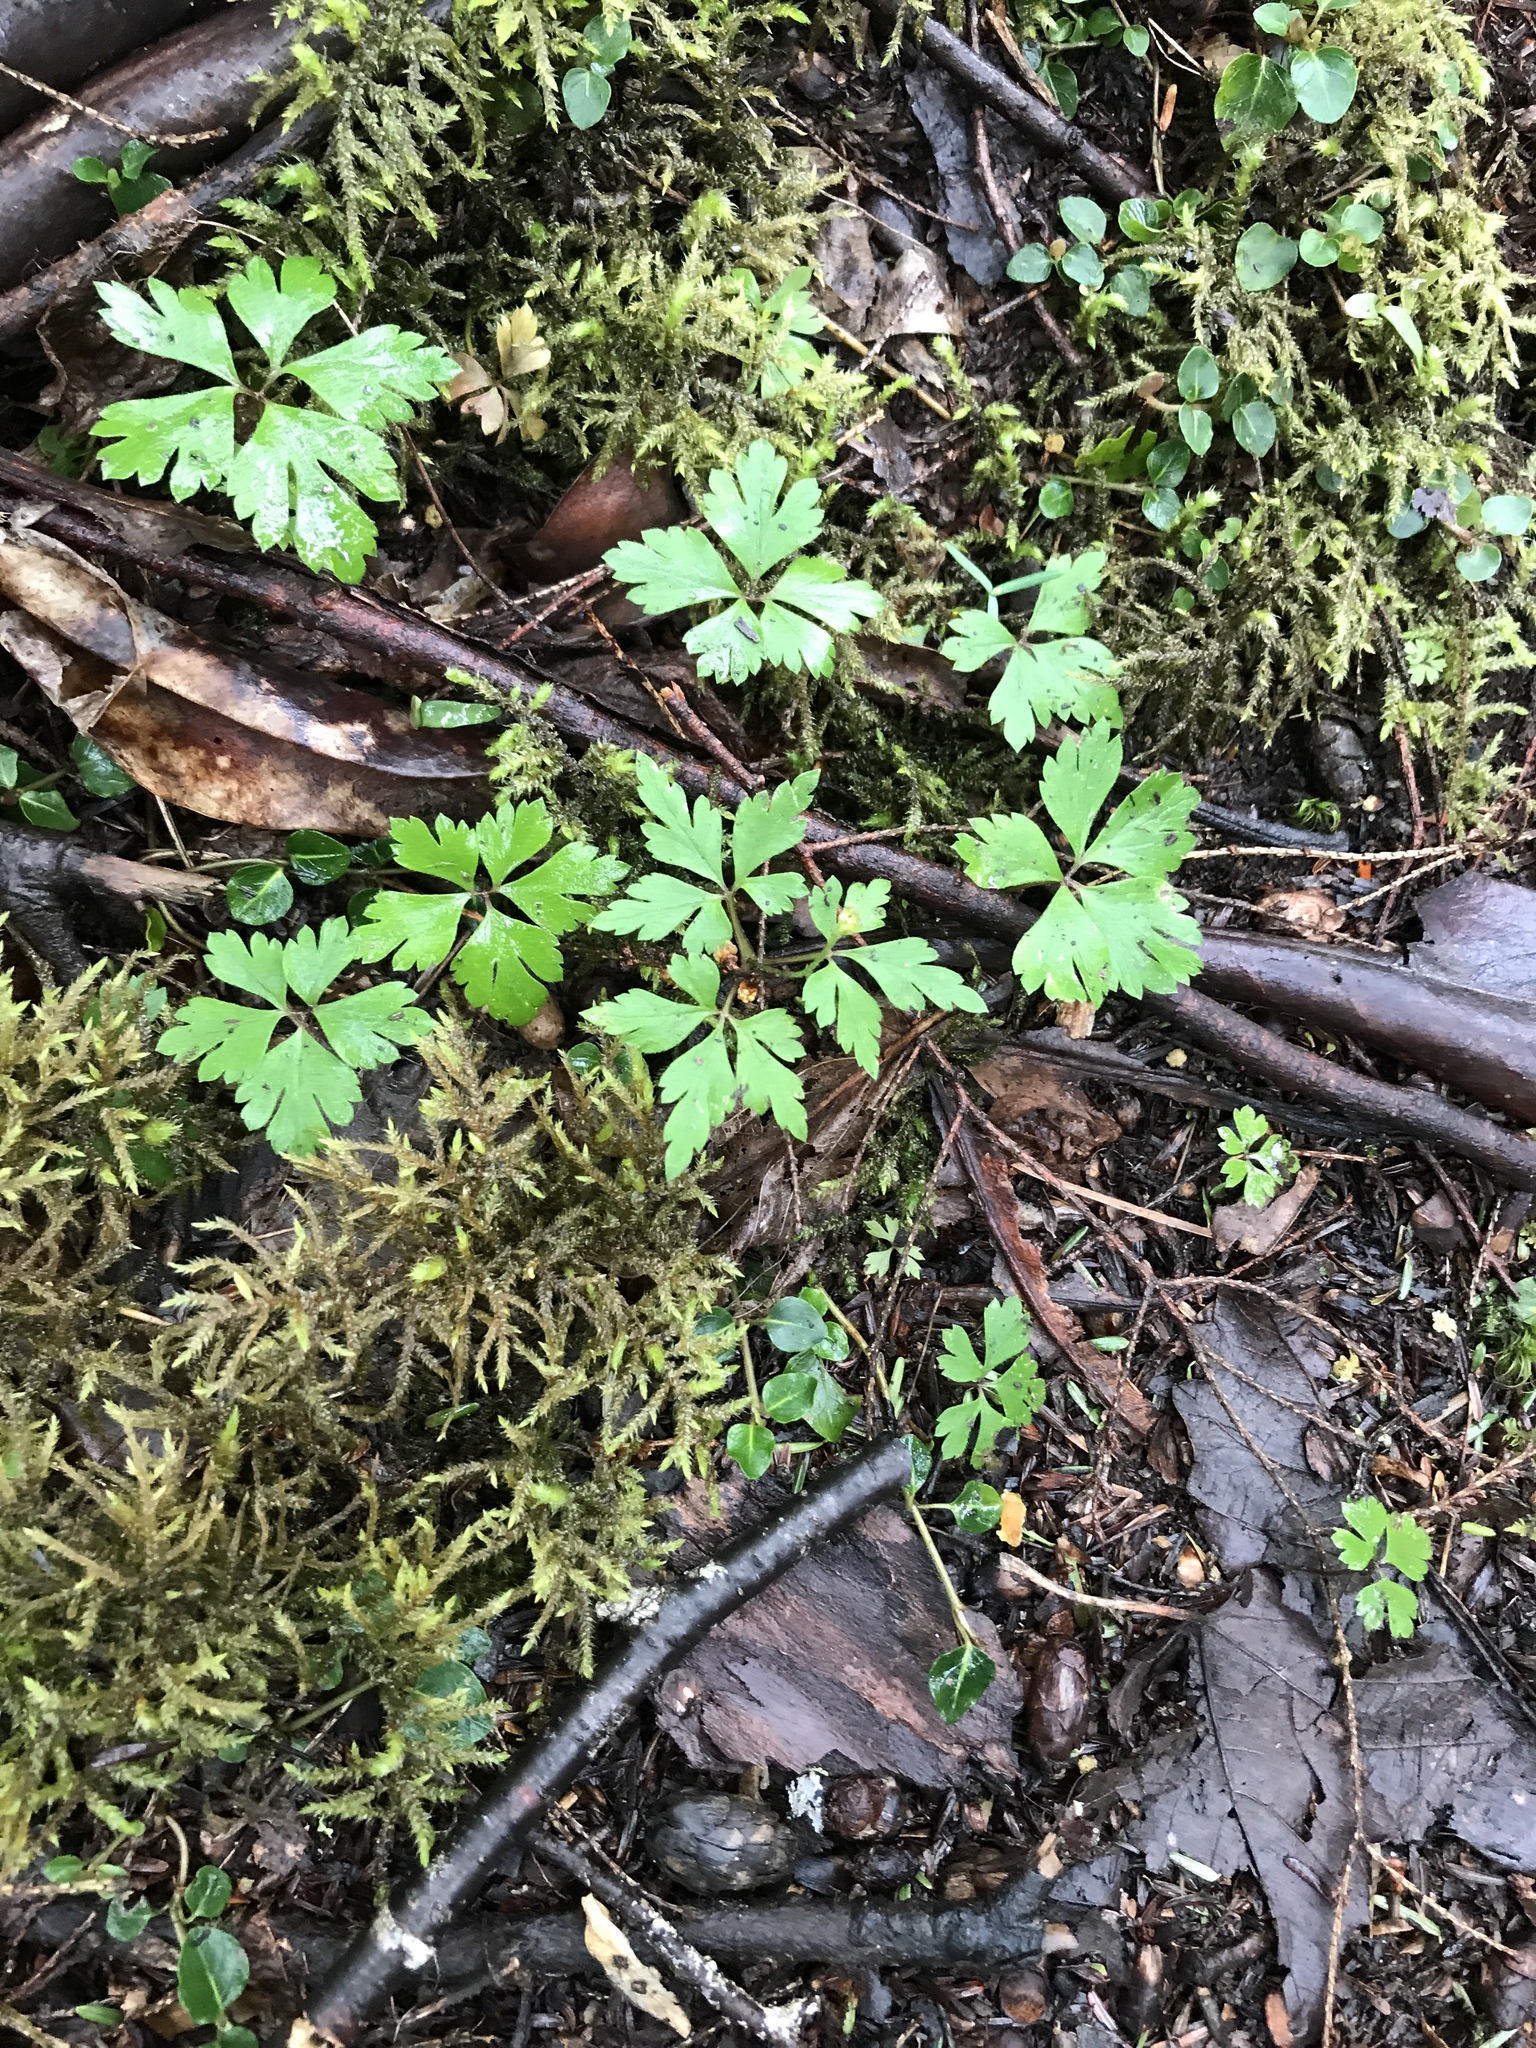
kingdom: Plantae
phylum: Tracheophyta
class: Magnoliopsida
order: Ranunculales
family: Ranunculaceae
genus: Anemone
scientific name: Anemone quinquefolia
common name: Wood anemone
